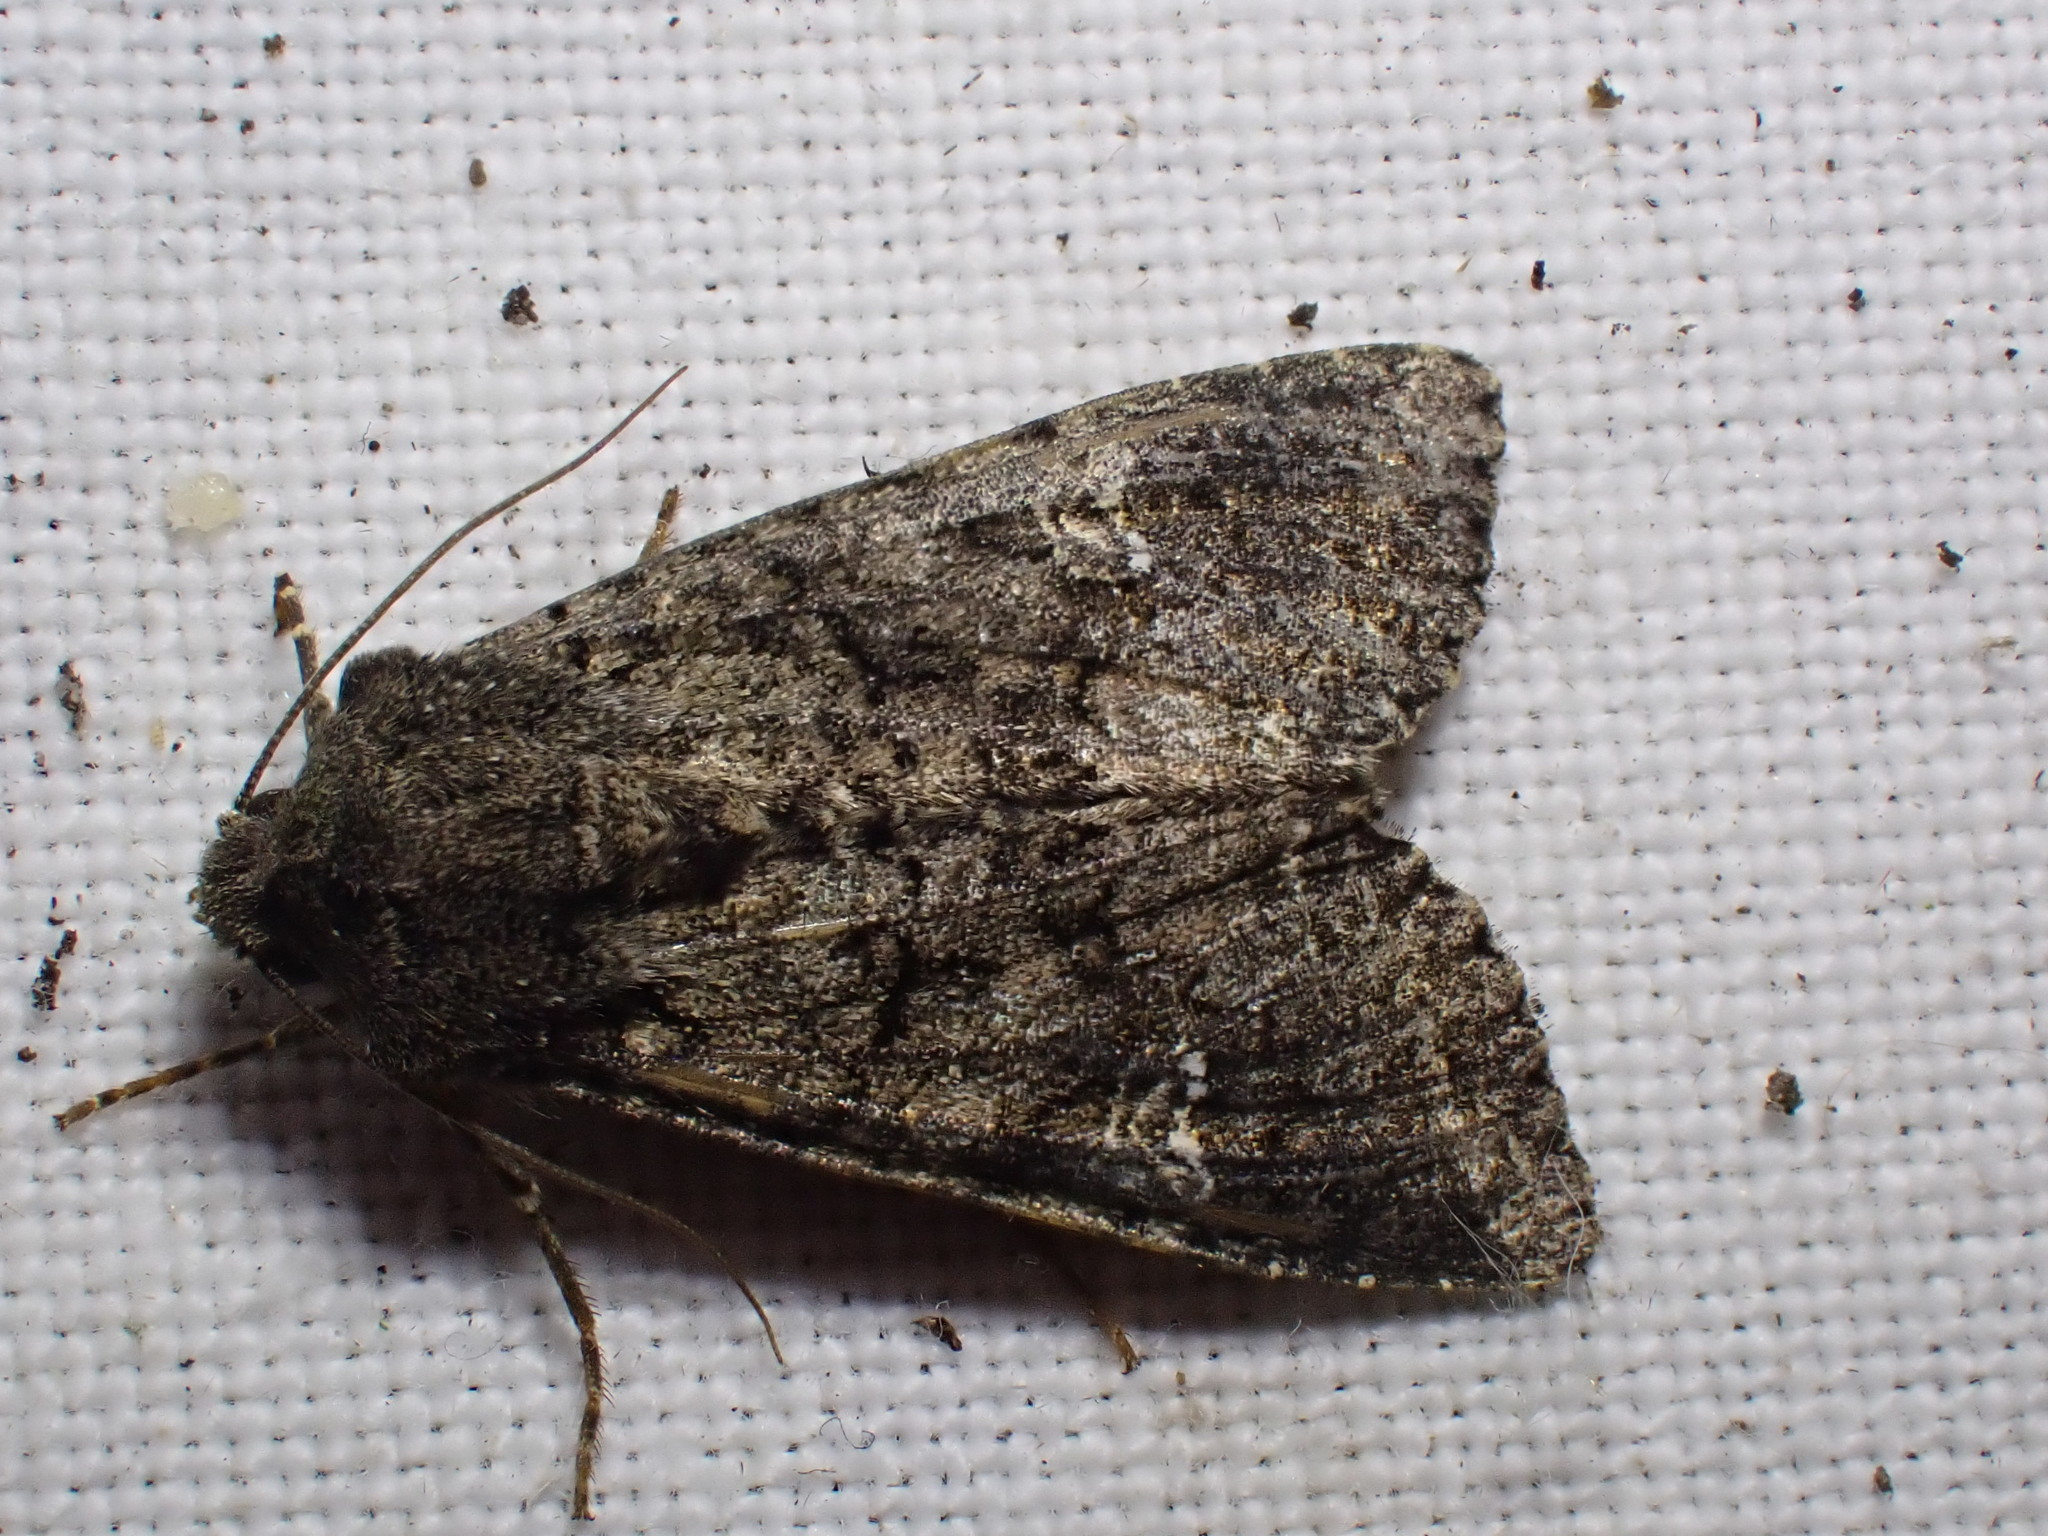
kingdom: Animalia
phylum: Arthropoda
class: Insecta
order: Lepidoptera
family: Noctuidae
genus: Mamestra
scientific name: Mamestra brassicae
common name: Cabbage moth
